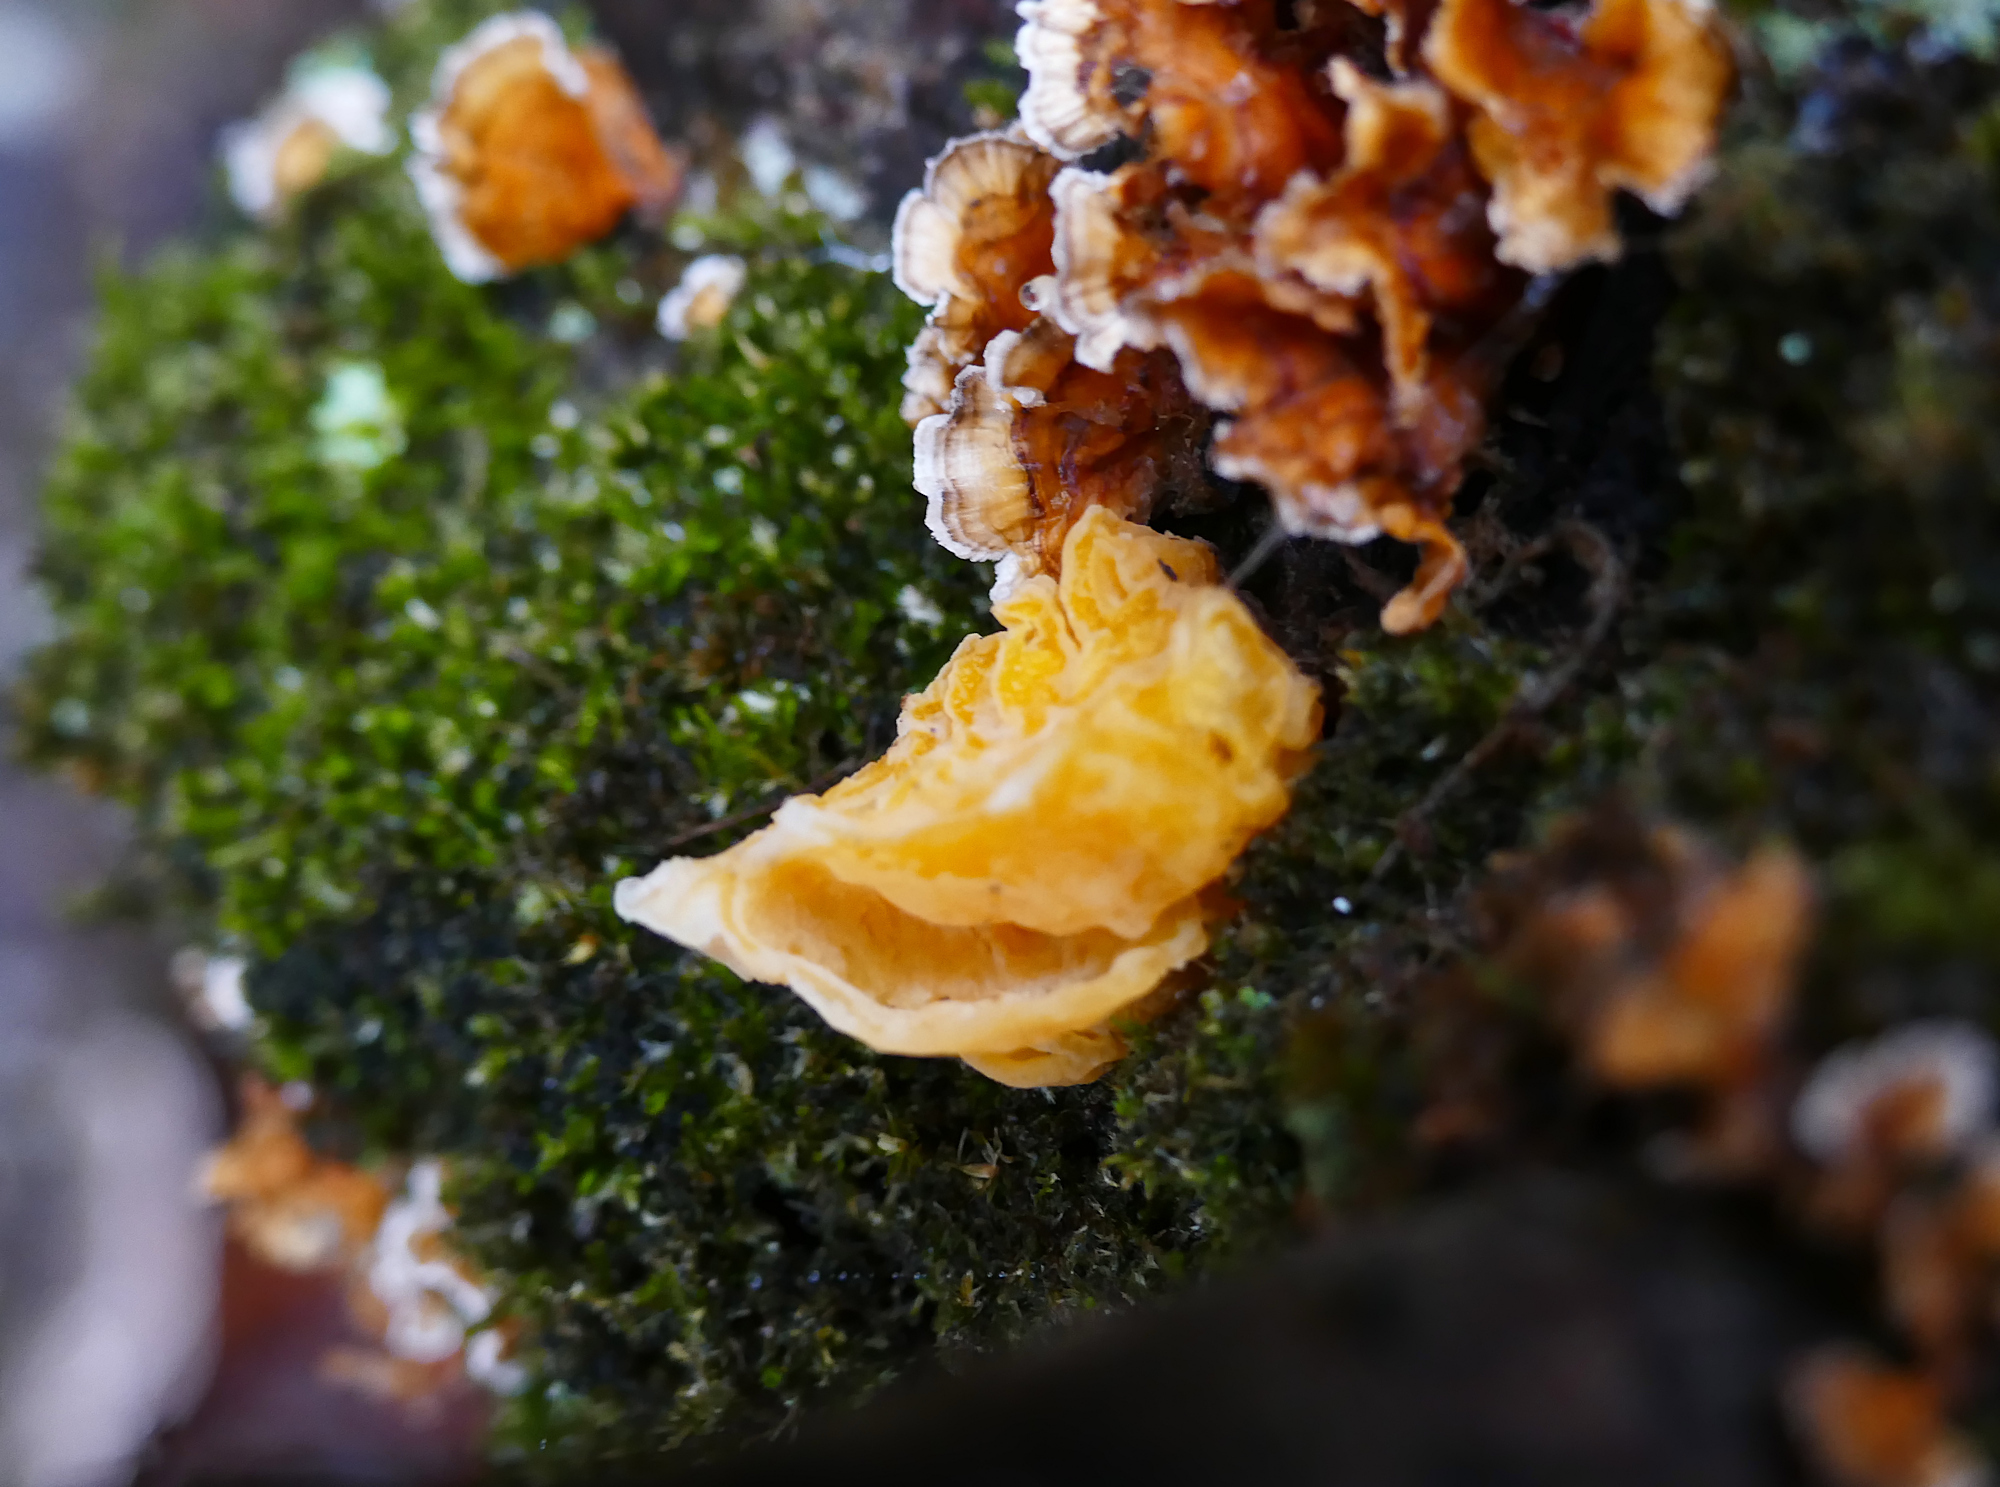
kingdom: Fungi
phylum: Basidiomycota
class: Tremellomycetes
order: Tremellales
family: Naemateliaceae
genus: Naematelia
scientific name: Naematelia aurantia
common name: Golden ear
